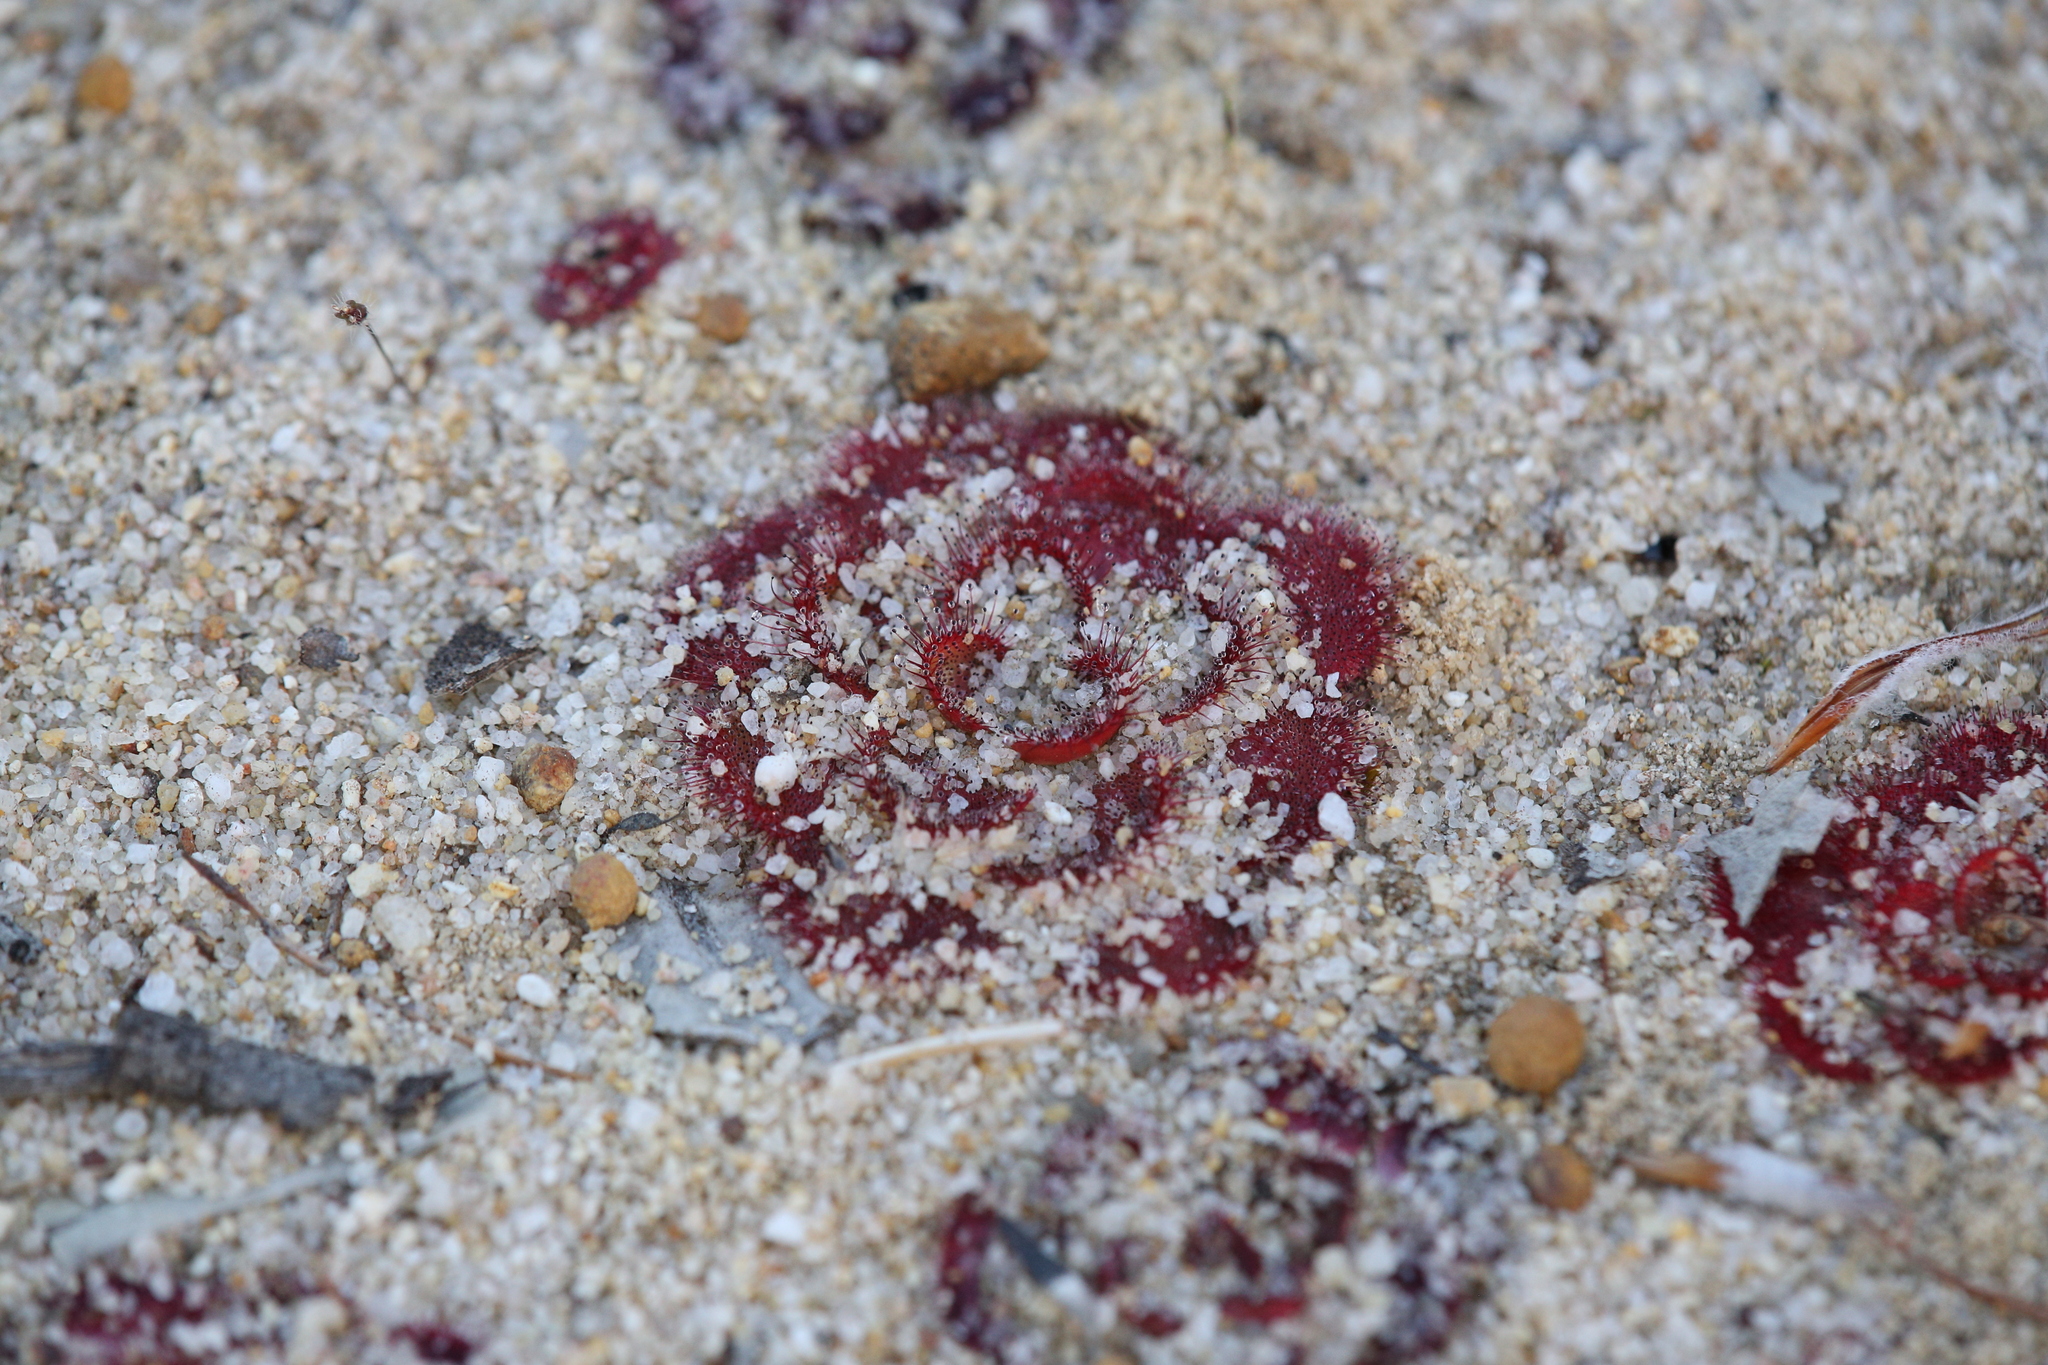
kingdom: Plantae
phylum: Tracheophyta
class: Magnoliopsida
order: Caryophyllales
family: Droseraceae
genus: Drosera
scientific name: Drosera zonaria
